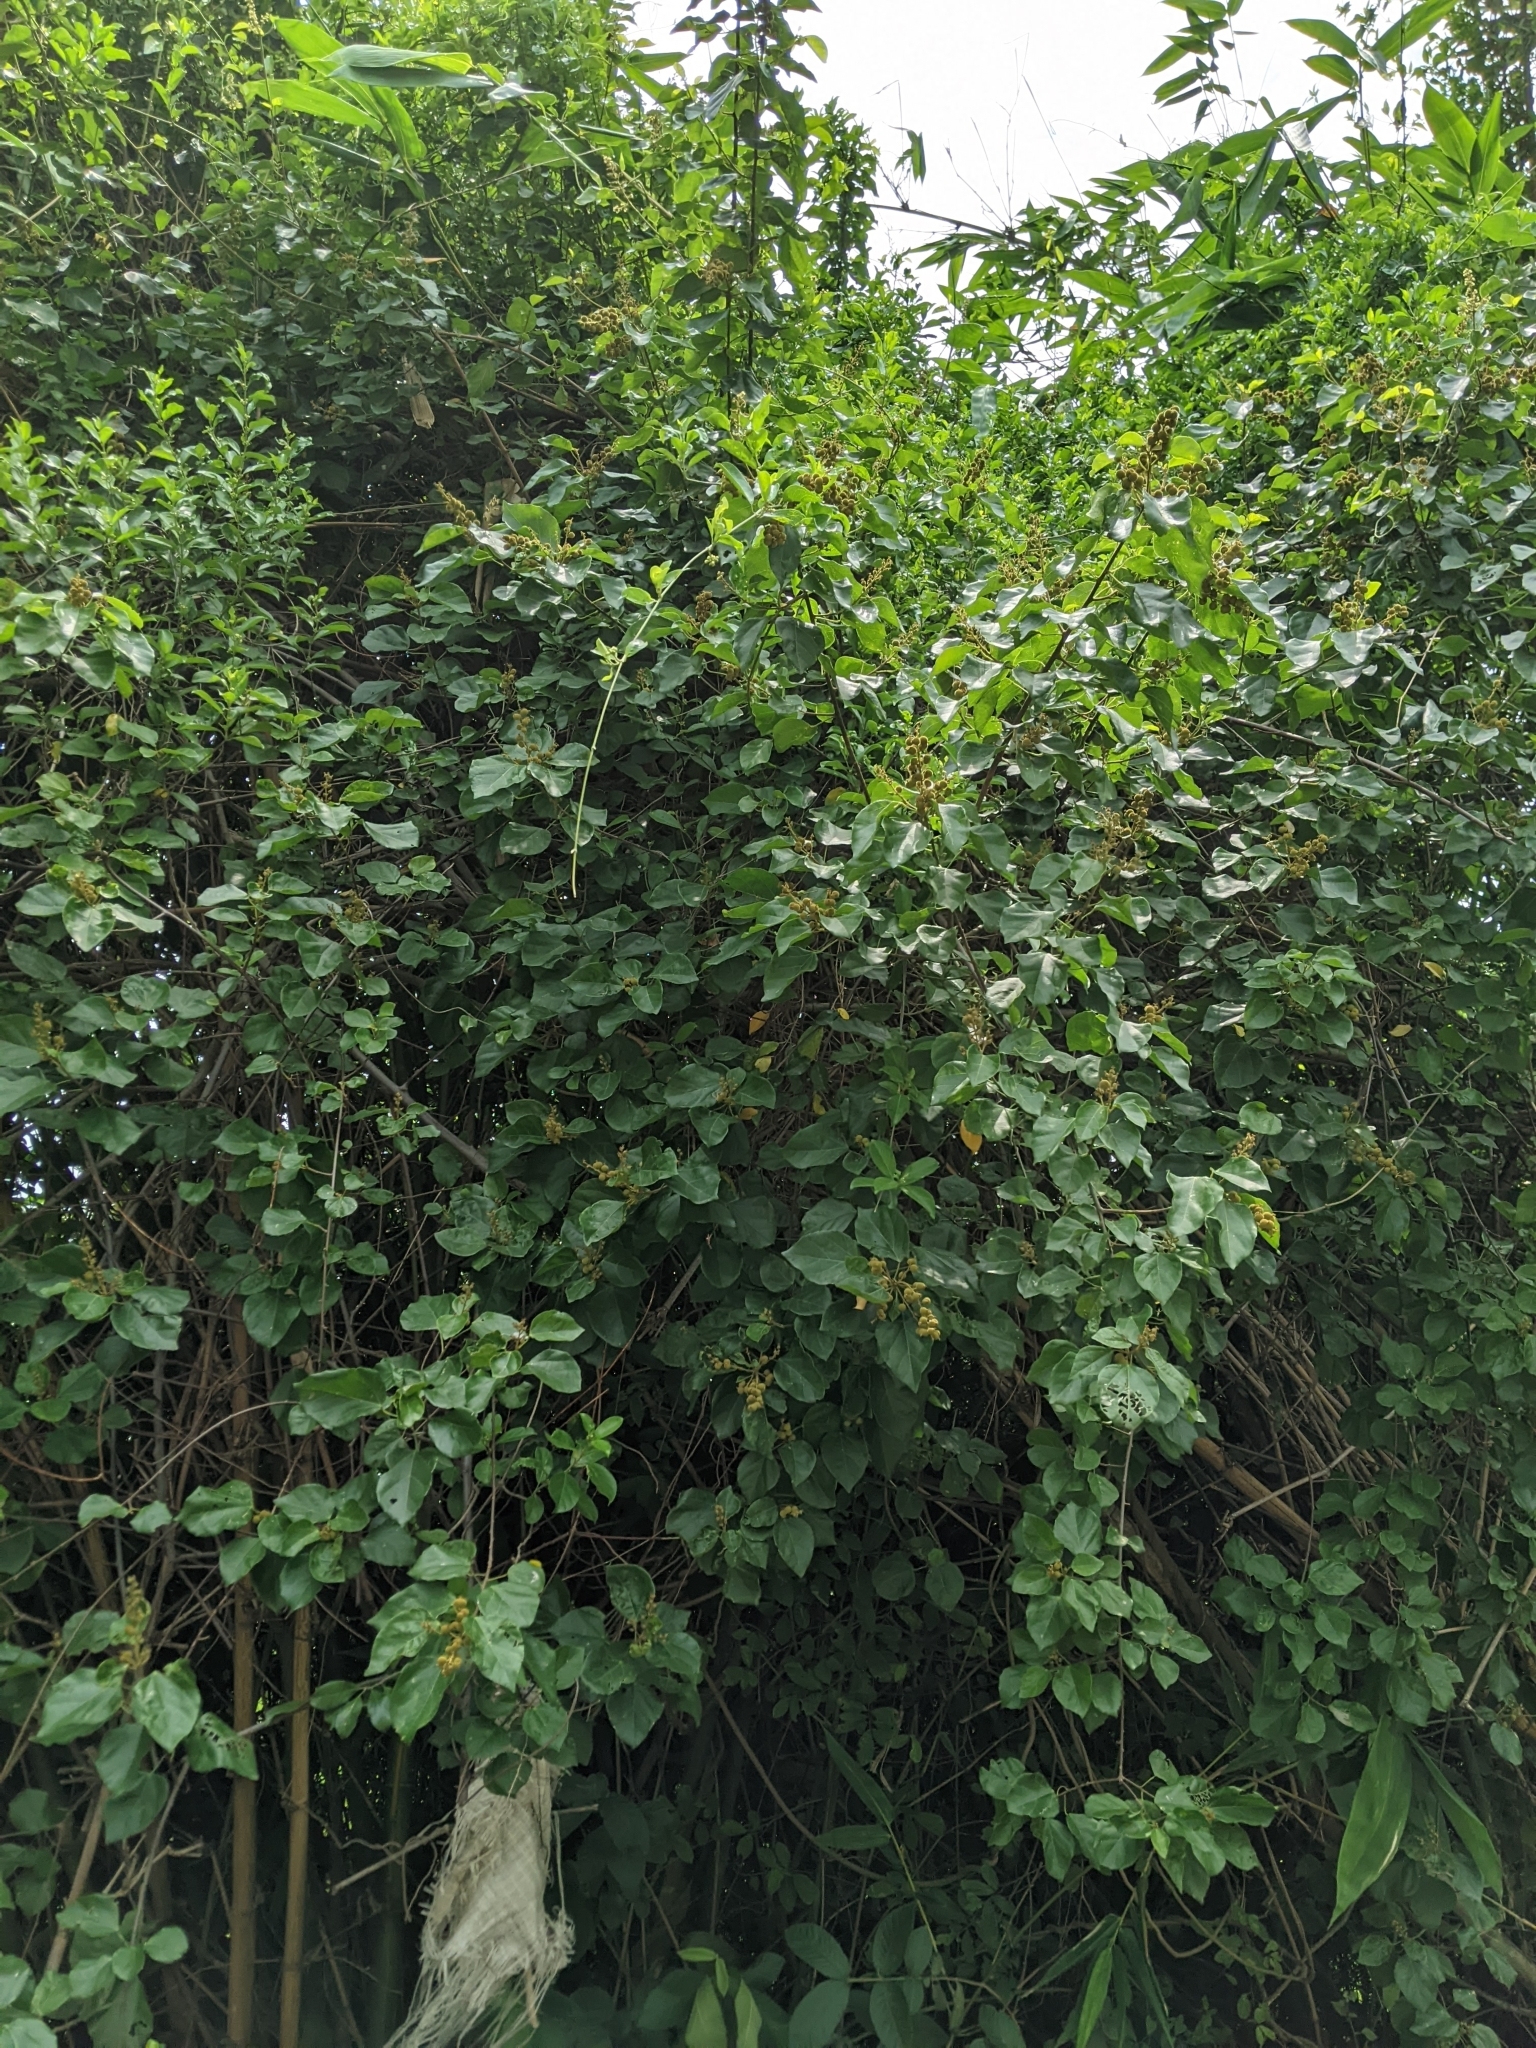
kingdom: Plantae
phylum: Tracheophyta
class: Magnoliopsida
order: Malpighiales
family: Euphorbiaceae
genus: Mallotus
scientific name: Mallotus repandus
